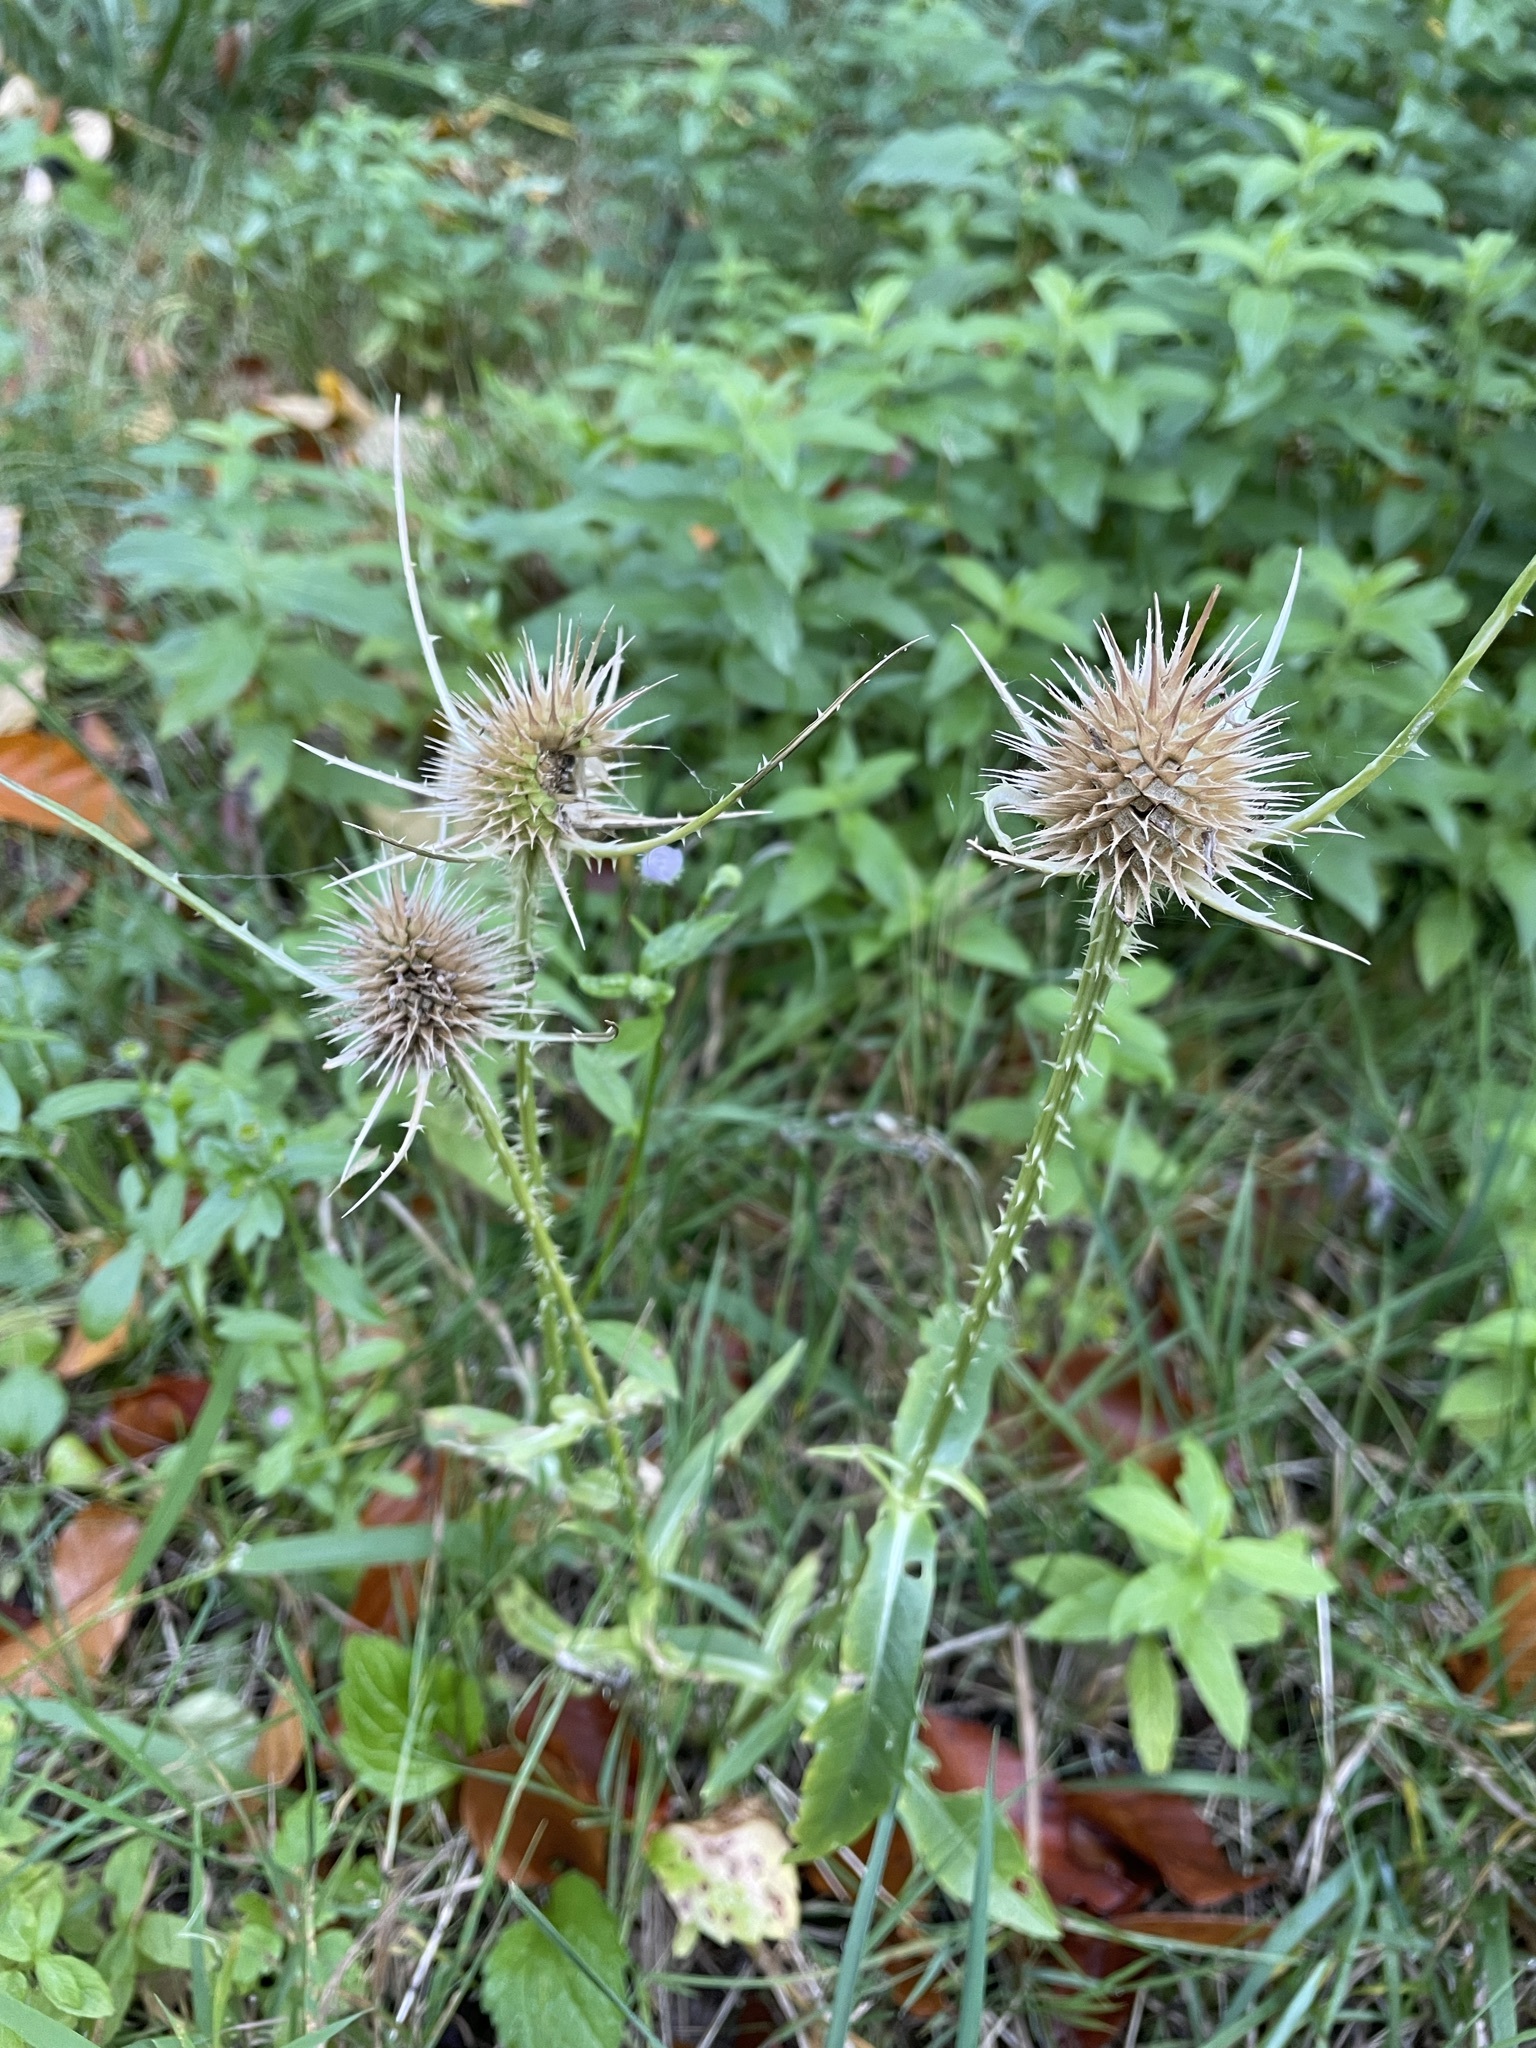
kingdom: Plantae
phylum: Tracheophyta
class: Magnoliopsida
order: Dipsacales
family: Caprifoliaceae
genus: Dipsacus
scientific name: Dipsacus fullonum
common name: Teasel
